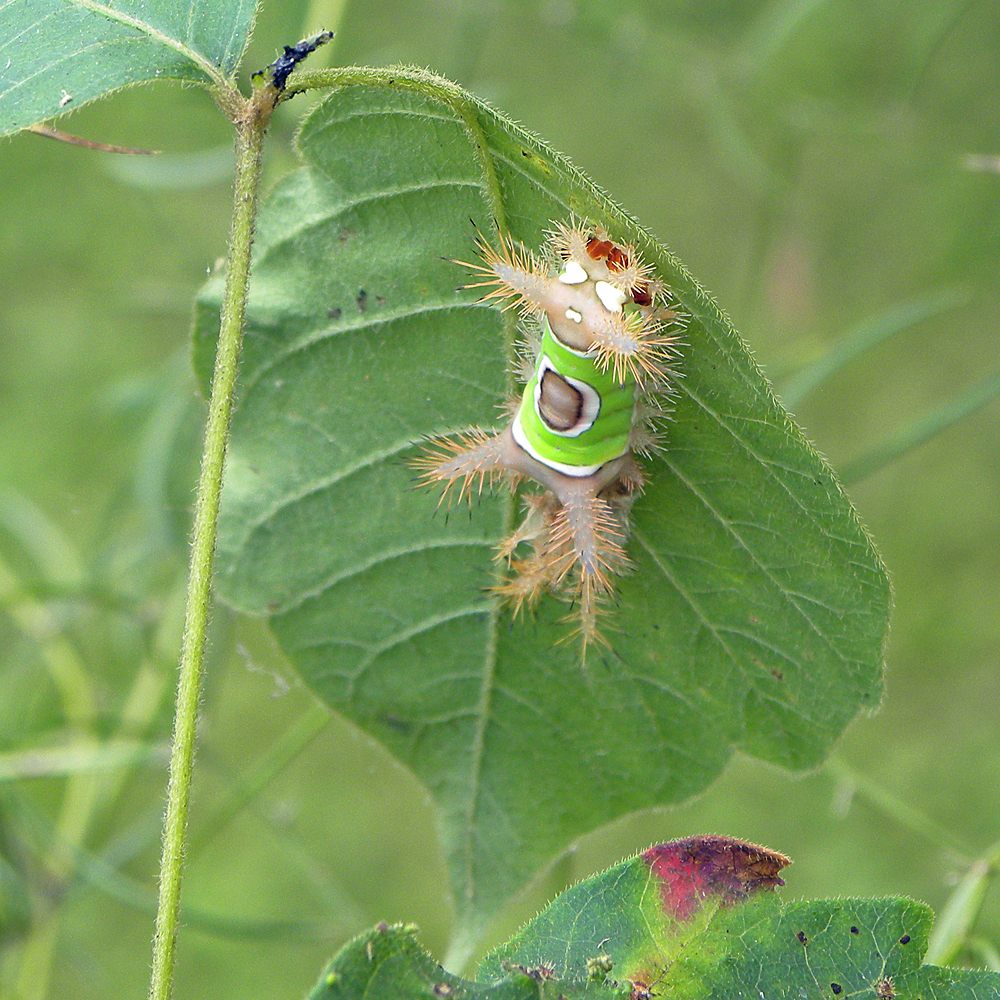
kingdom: Animalia
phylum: Arthropoda
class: Insecta
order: Lepidoptera
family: Limacodidae
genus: Acharia
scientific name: Acharia stimulea
